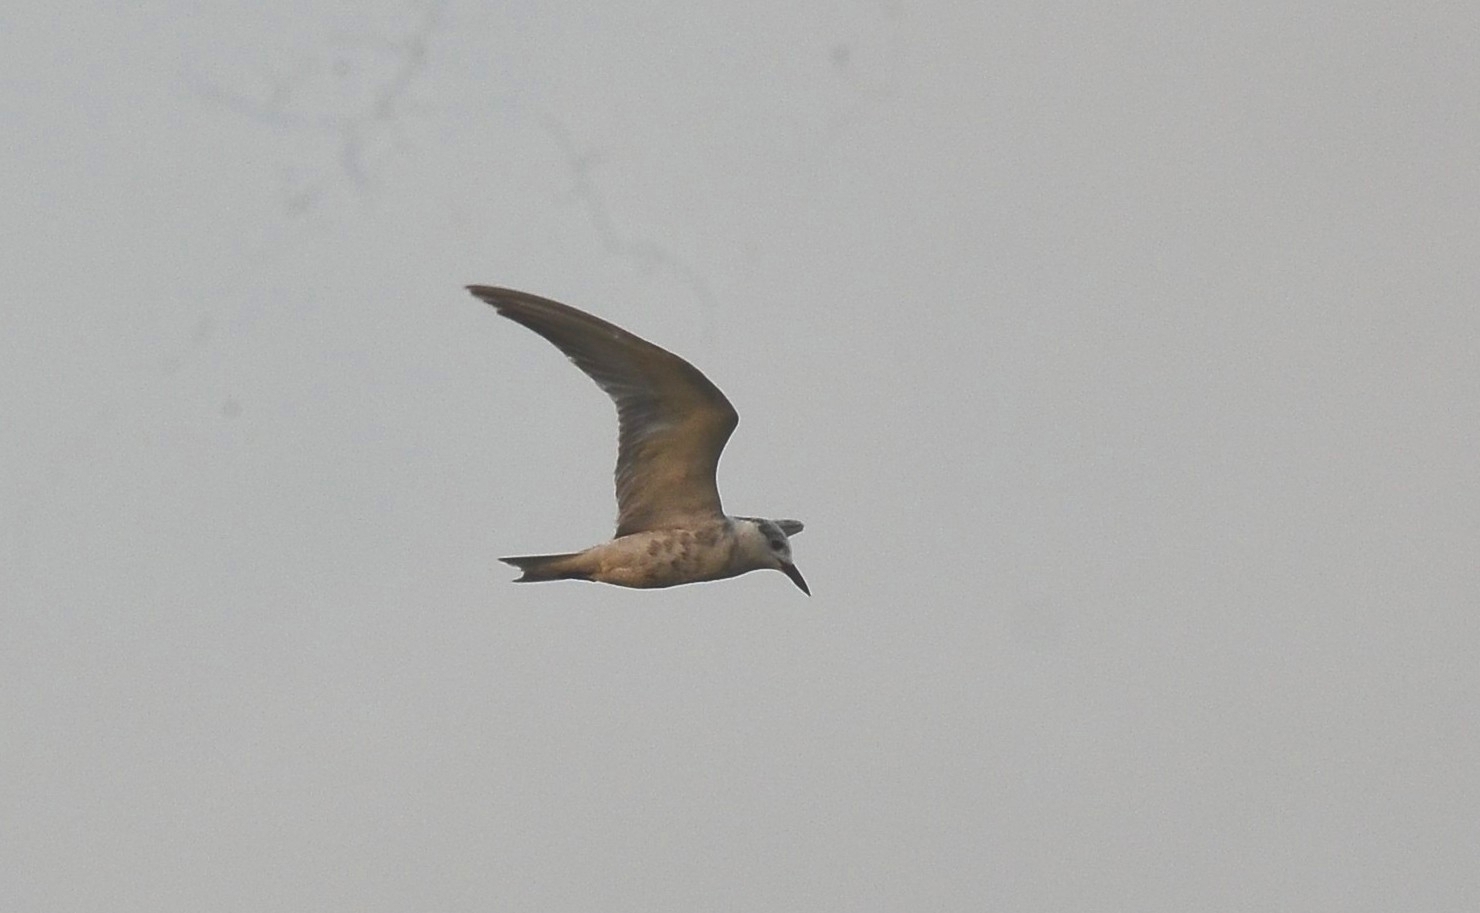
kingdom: Animalia
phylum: Chordata
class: Aves
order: Charadriiformes
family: Laridae
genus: Chlidonias
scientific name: Chlidonias hybrida
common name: Whiskered tern
